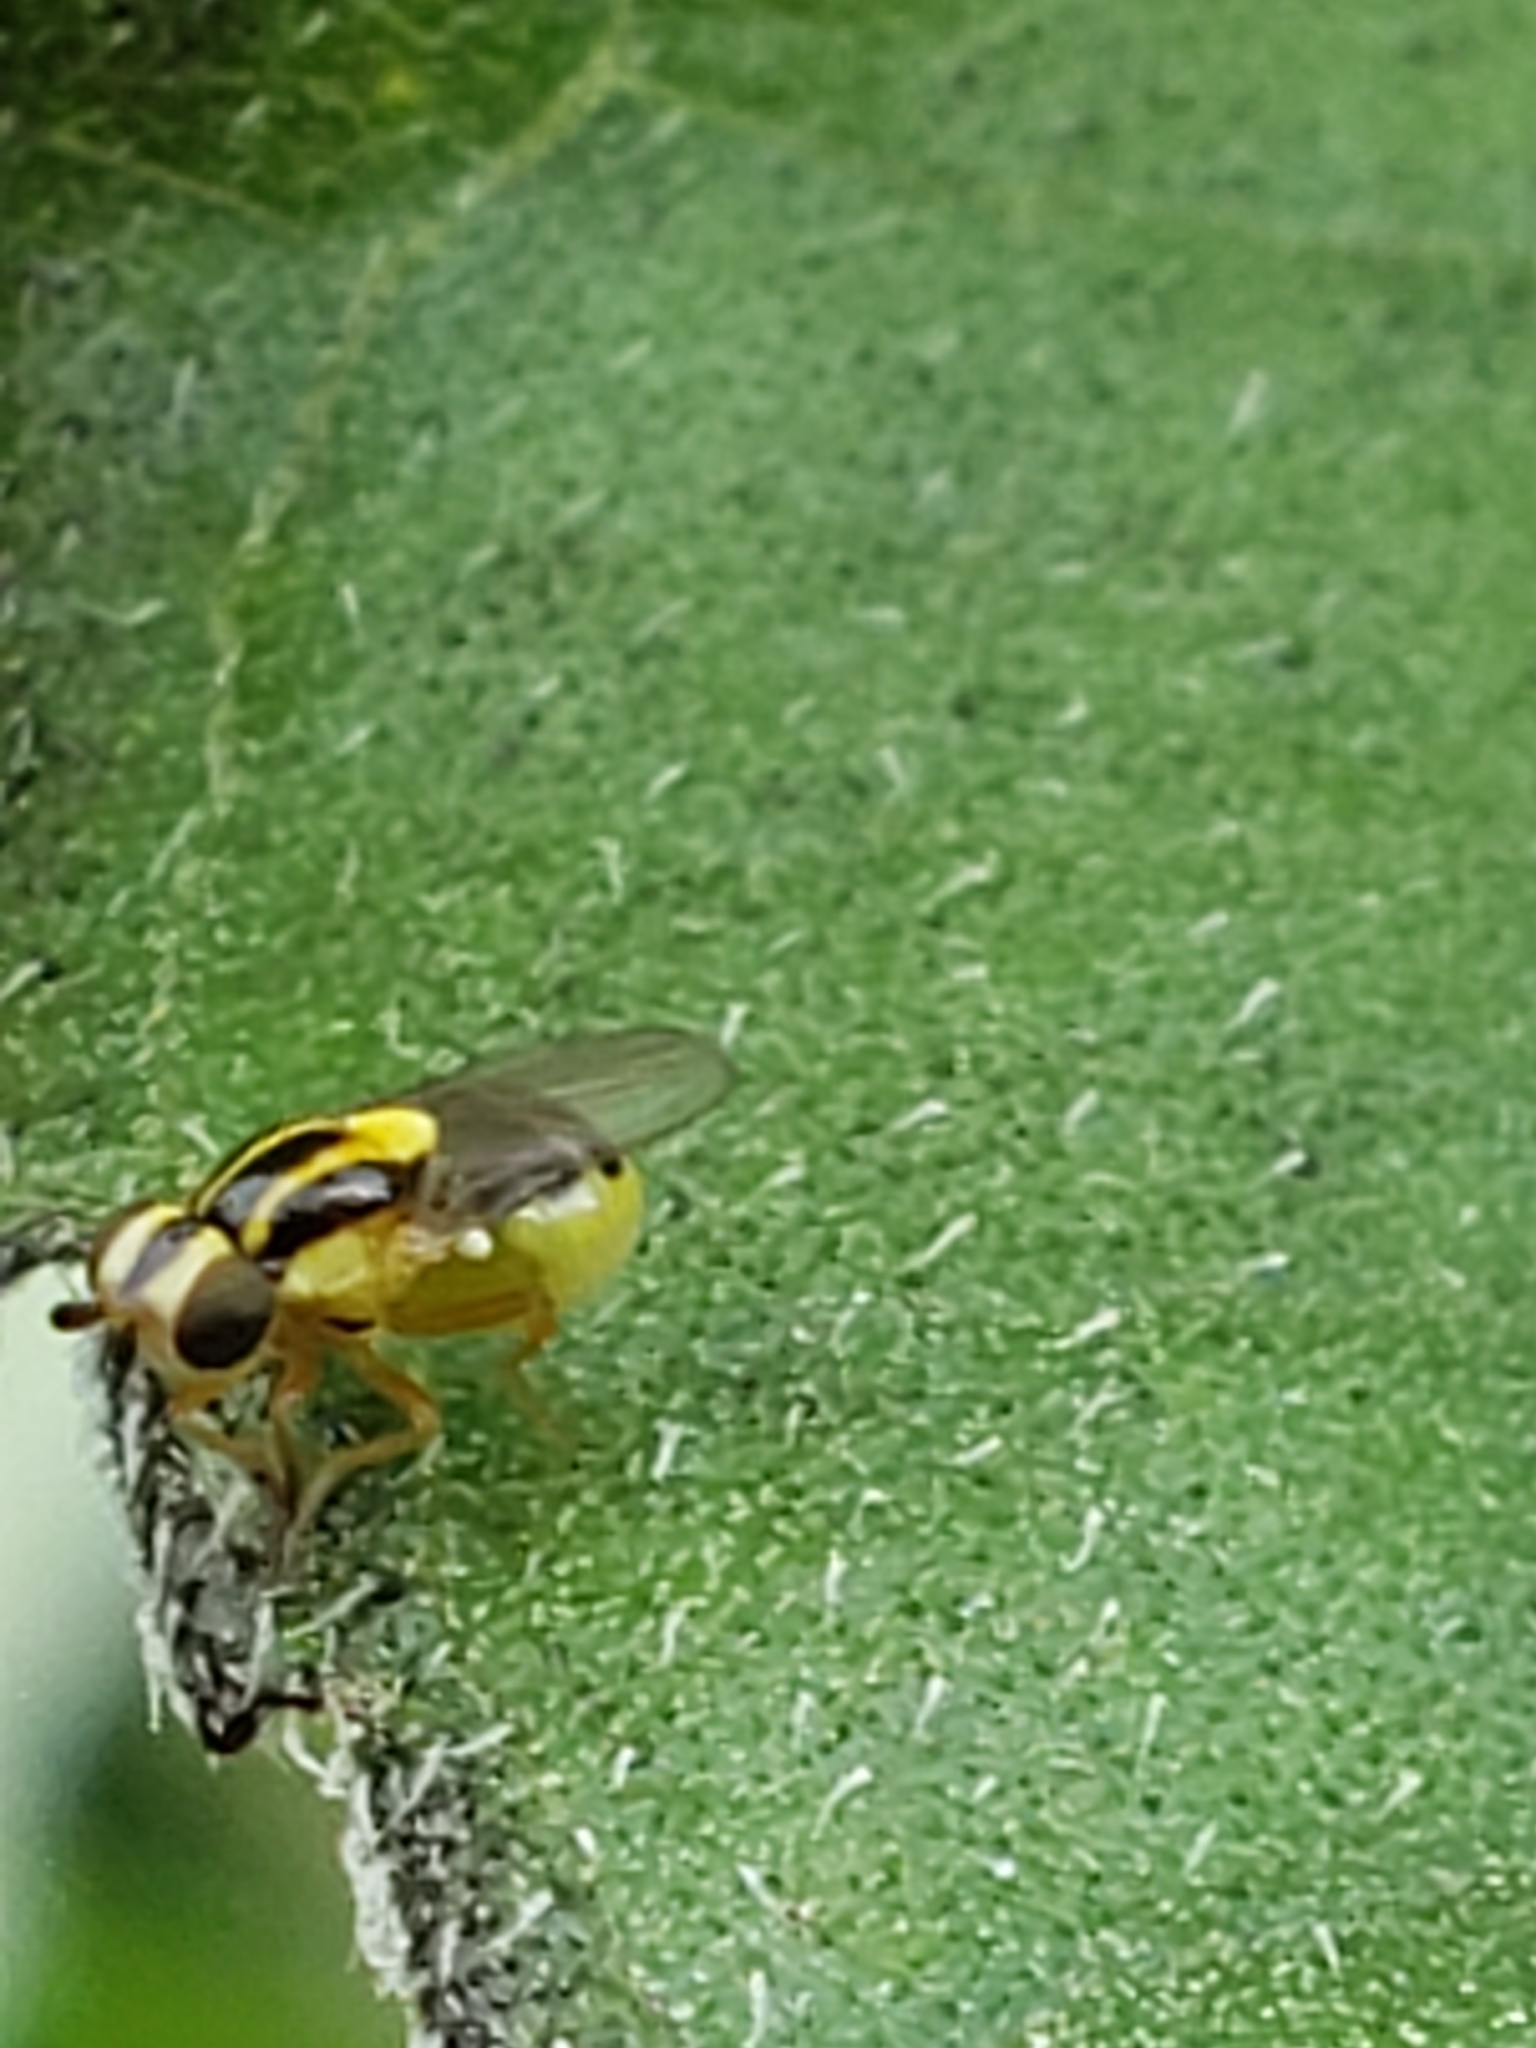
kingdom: Animalia
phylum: Arthropoda
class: Insecta
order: Diptera
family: Chloropidae
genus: Thaumatomyia
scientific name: Thaumatomyia glabra
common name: Chloropid fly
